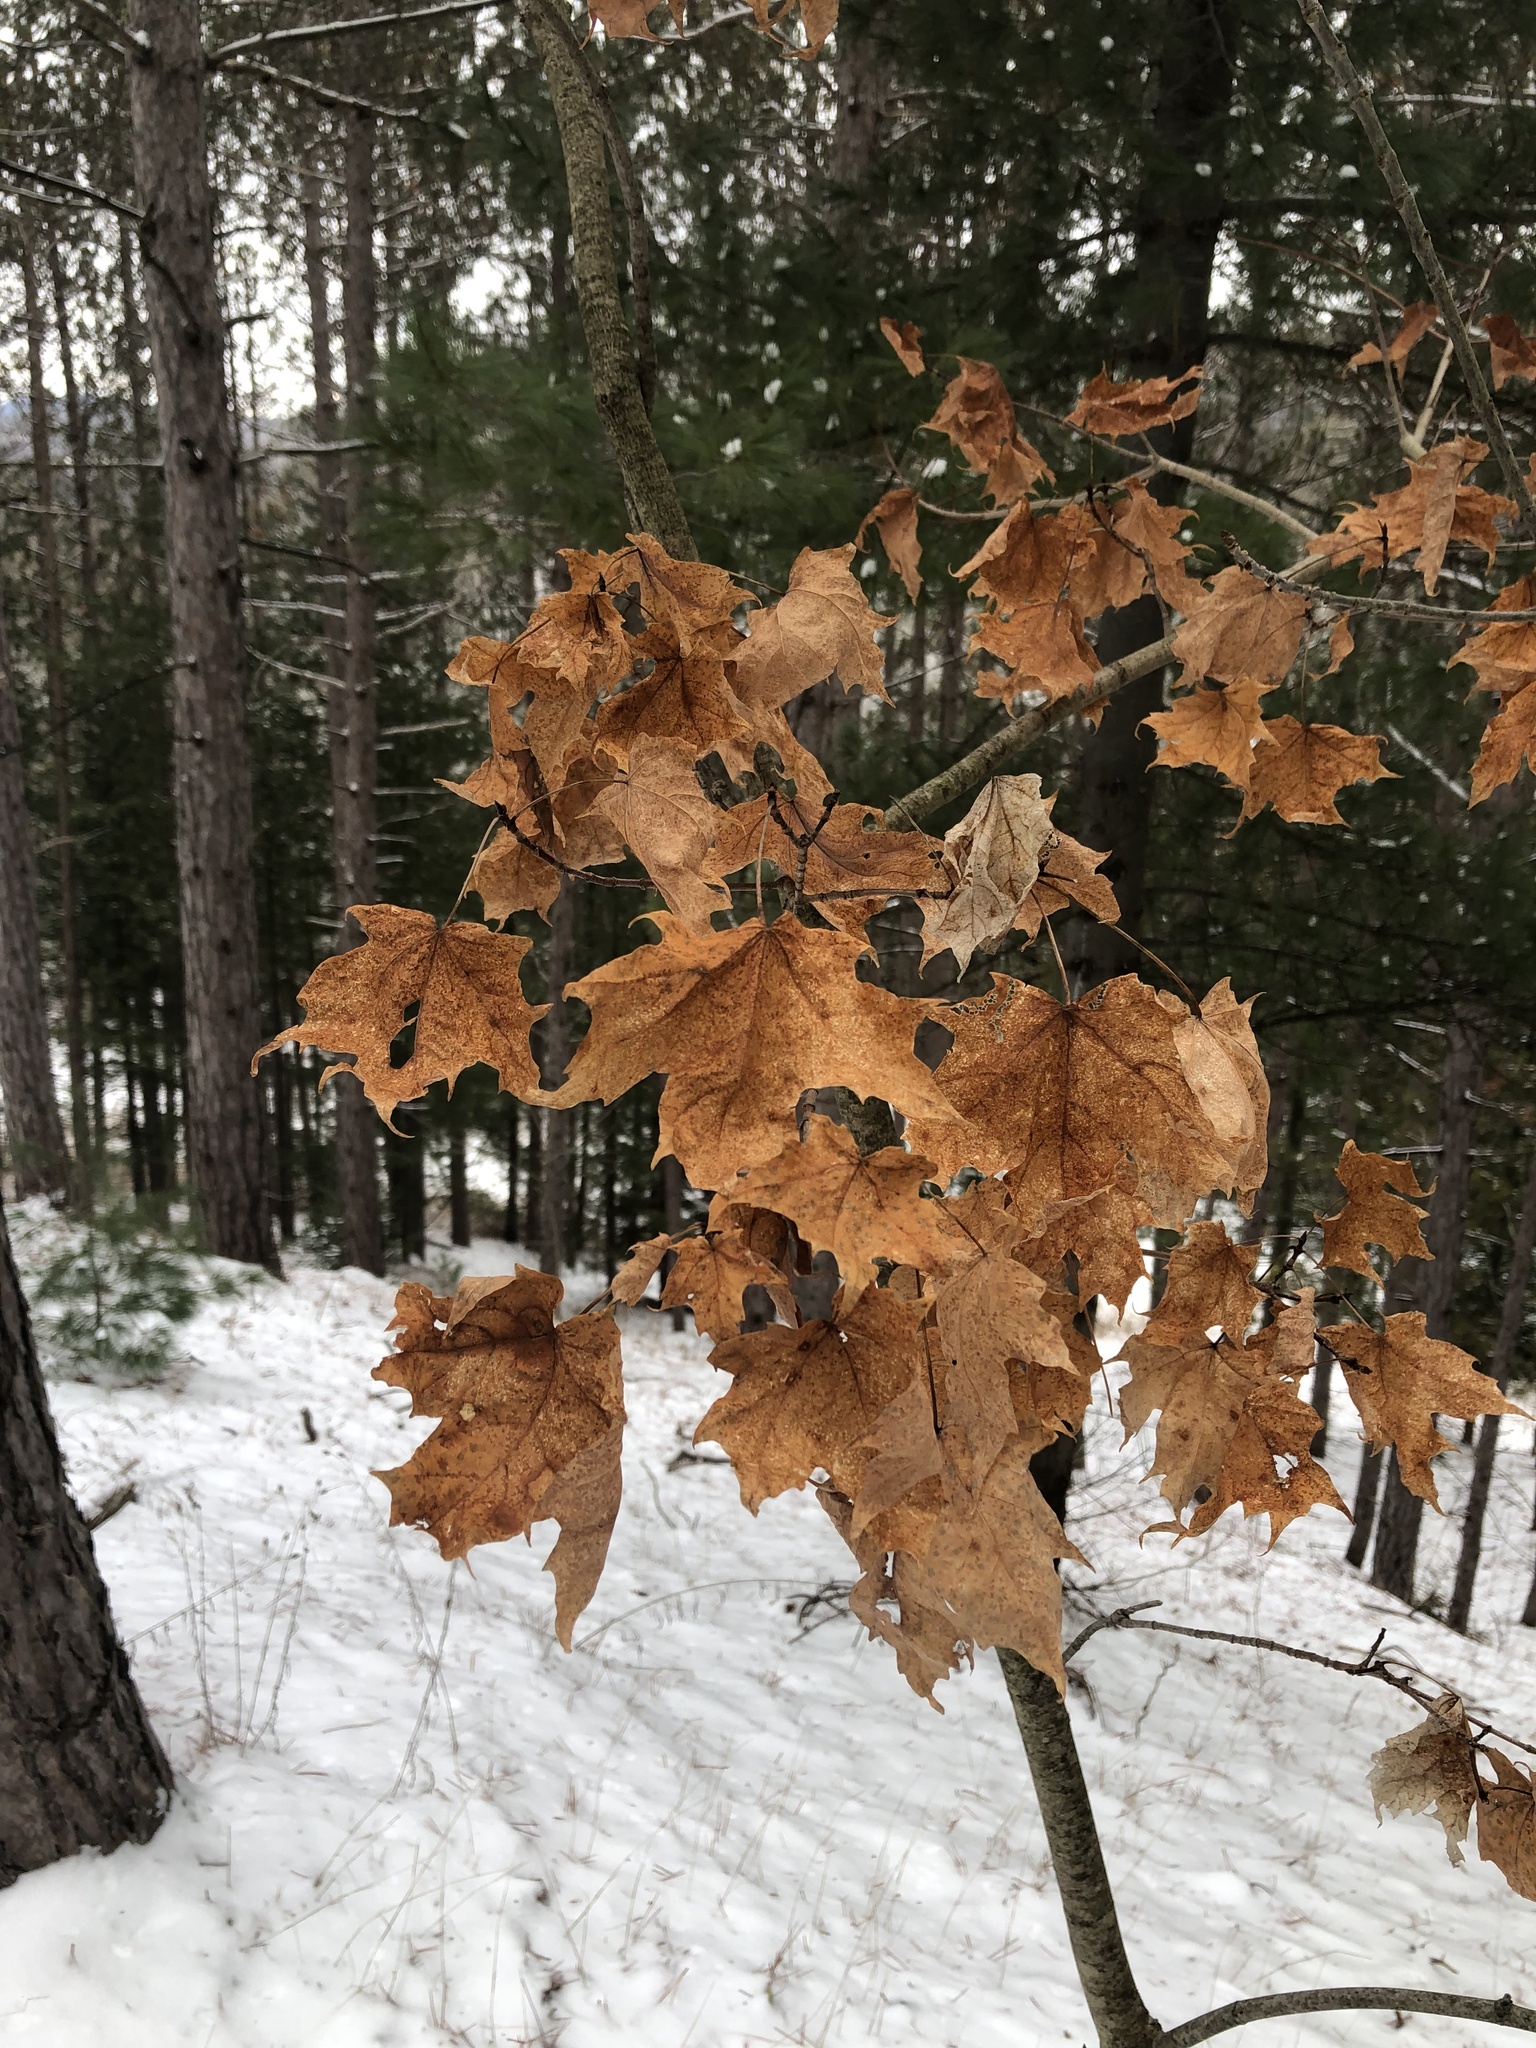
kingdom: Plantae
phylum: Tracheophyta
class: Magnoliopsida
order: Sapindales
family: Sapindaceae
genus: Acer
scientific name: Acer saccharum
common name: Sugar maple
